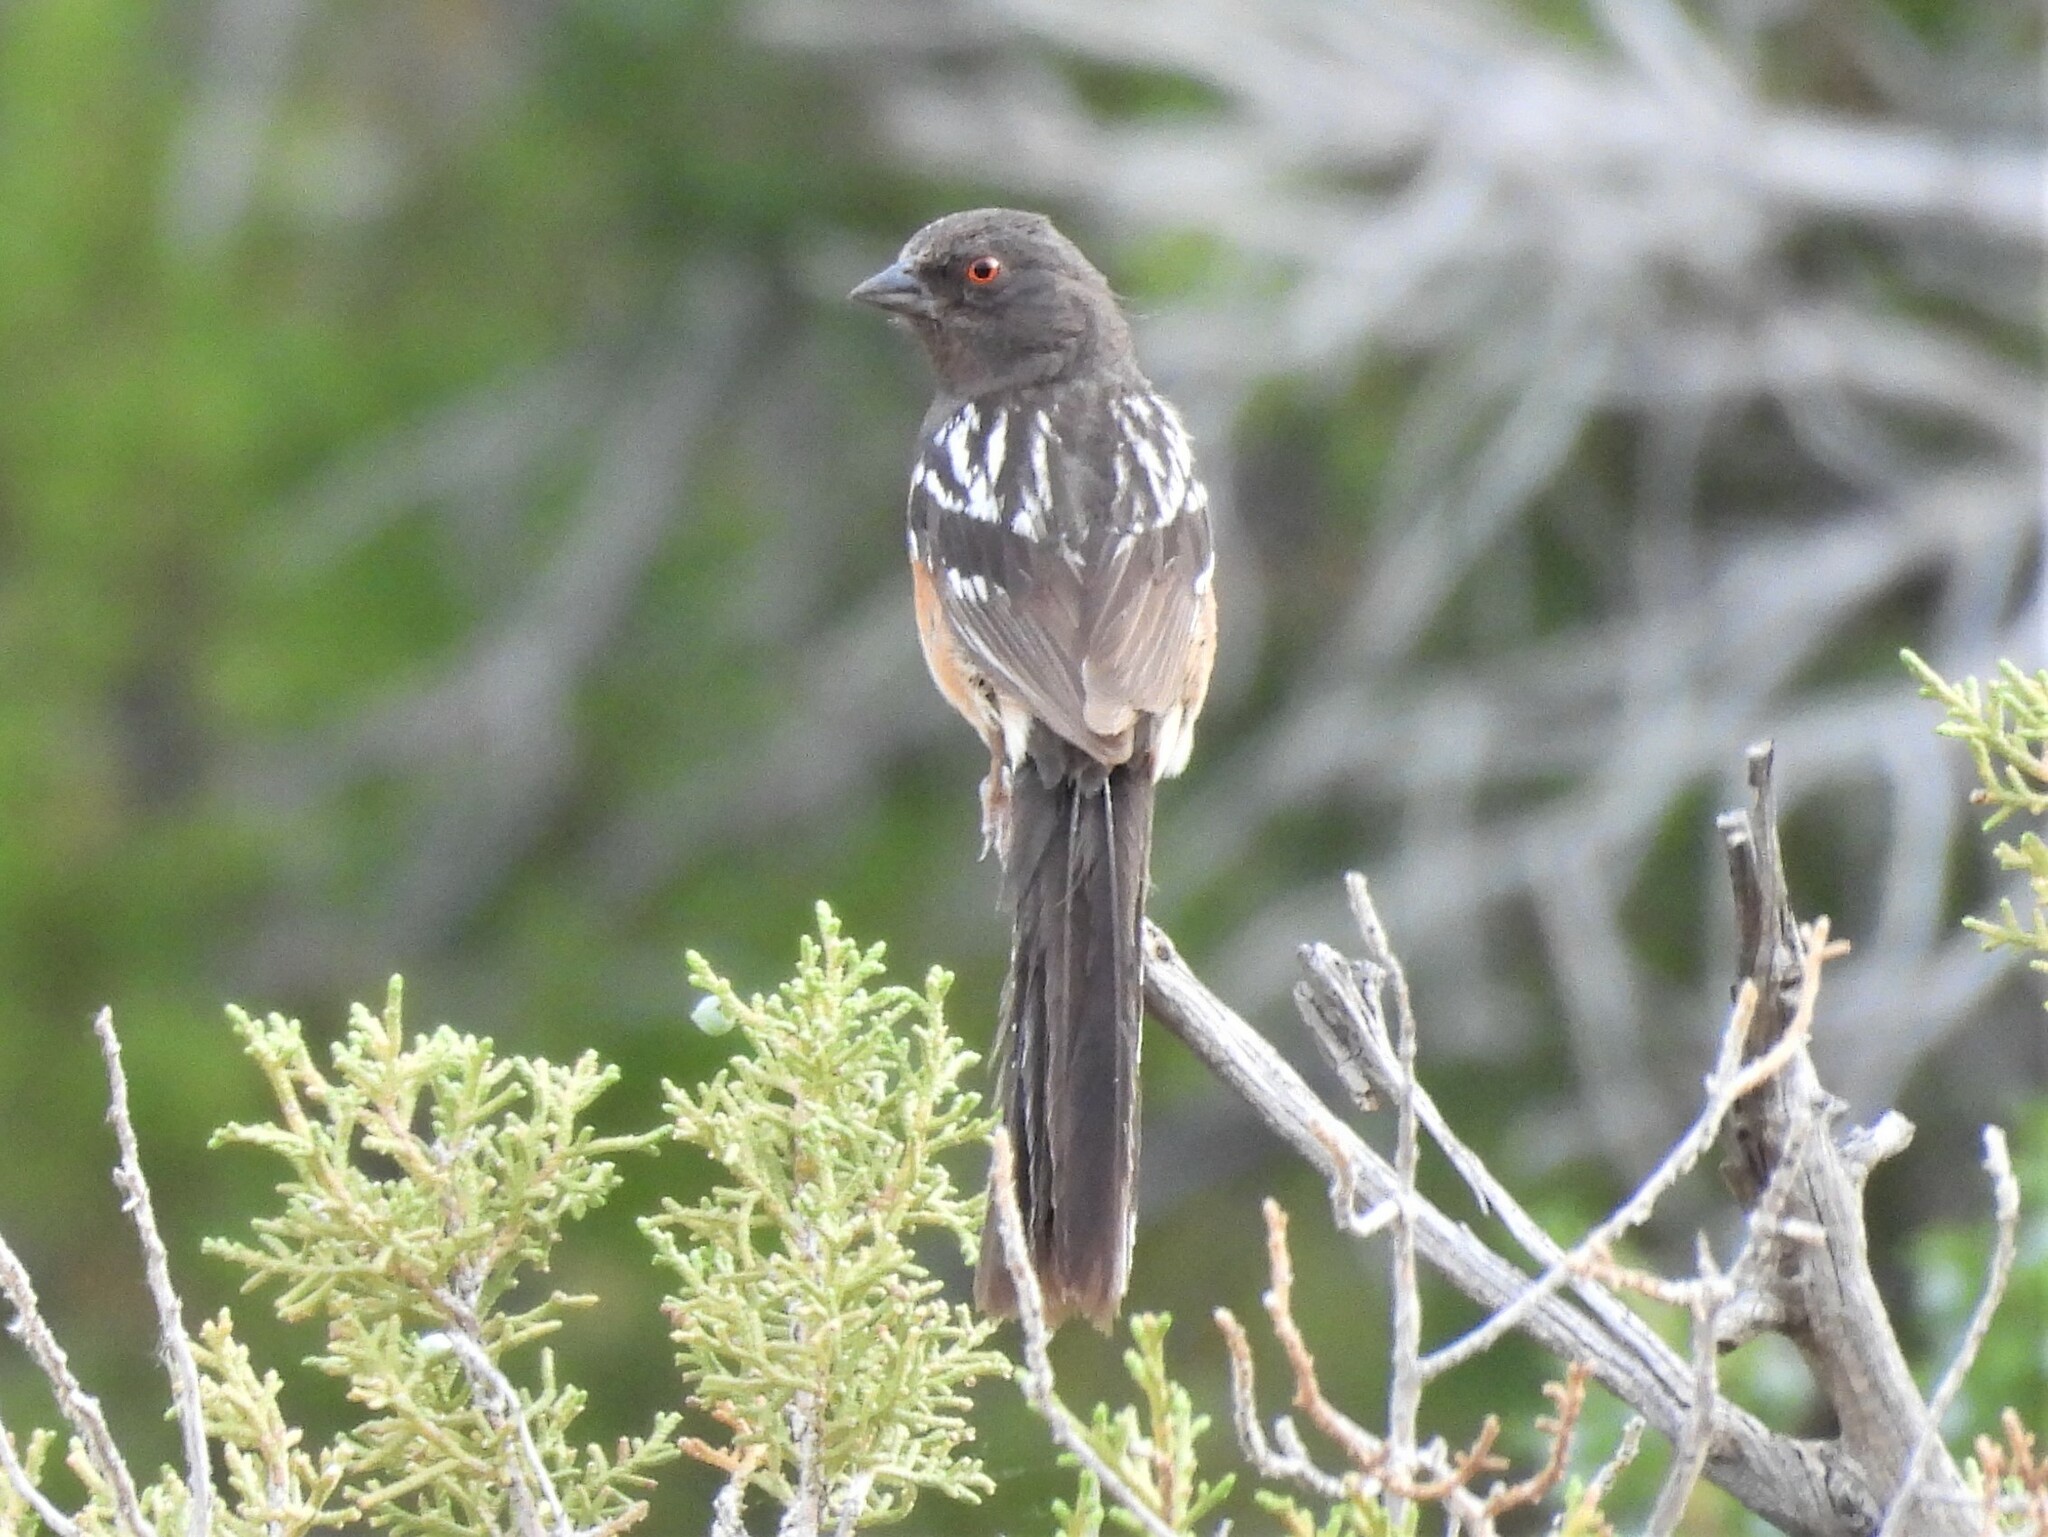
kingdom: Animalia
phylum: Chordata
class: Aves
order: Passeriformes
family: Passerellidae
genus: Pipilo
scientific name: Pipilo maculatus
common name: Spotted towhee
